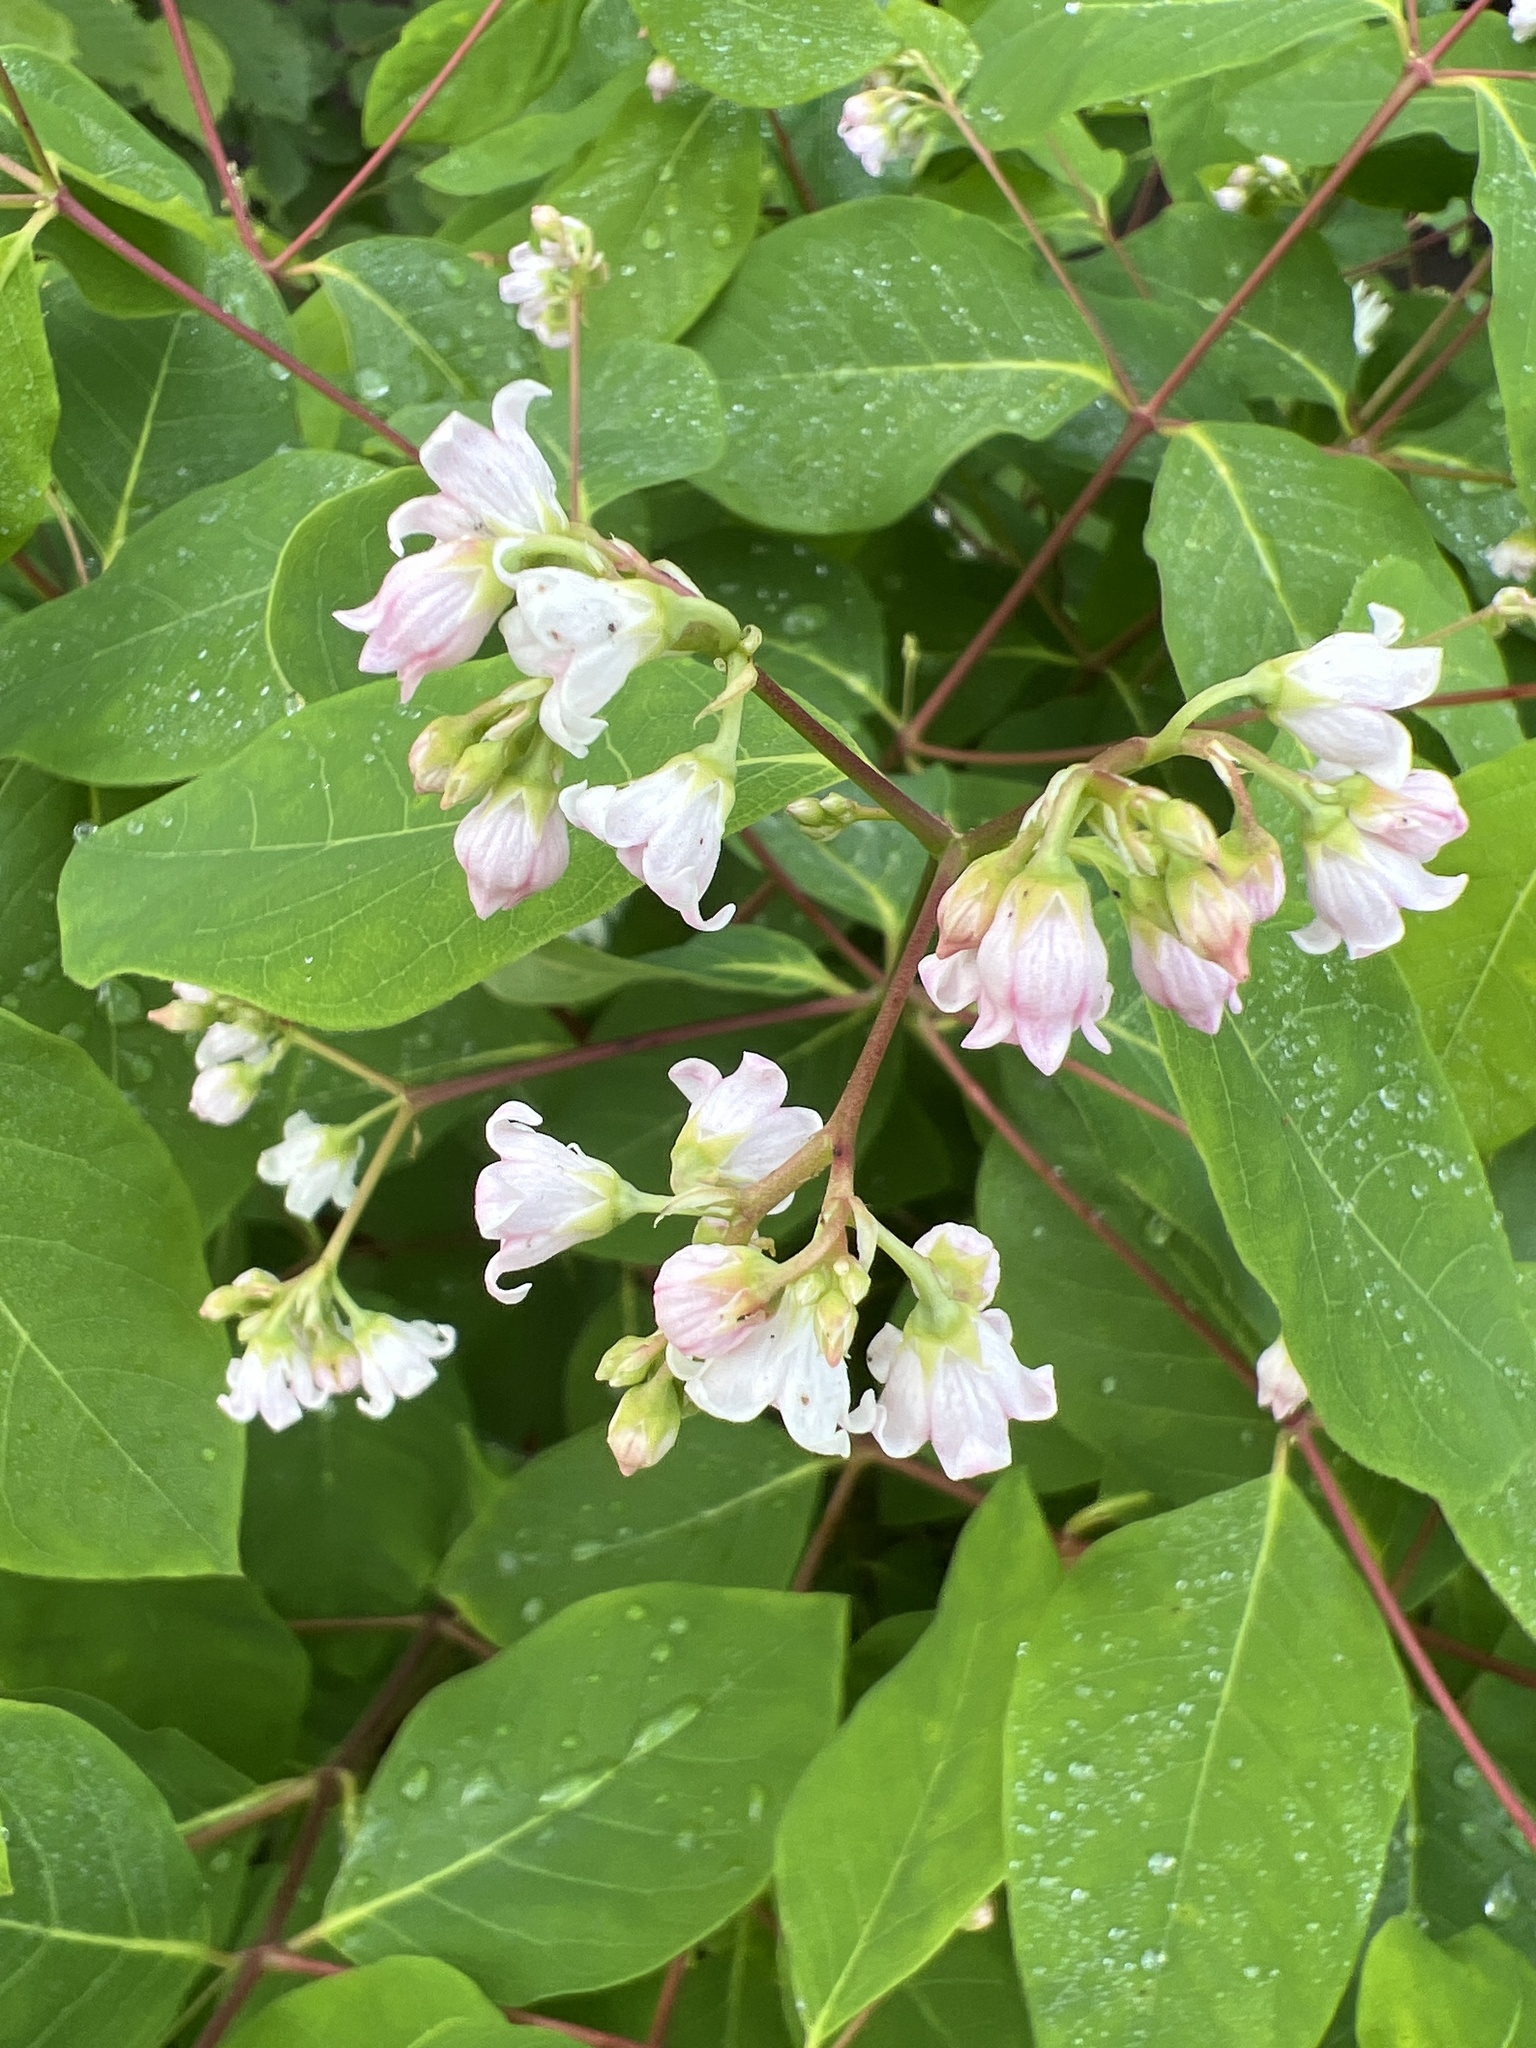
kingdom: Plantae
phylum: Tracheophyta
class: Magnoliopsida
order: Gentianales
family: Apocynaceae
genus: Apocynum
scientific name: Apocynum androsaemifolium
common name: Spreading dogbane
